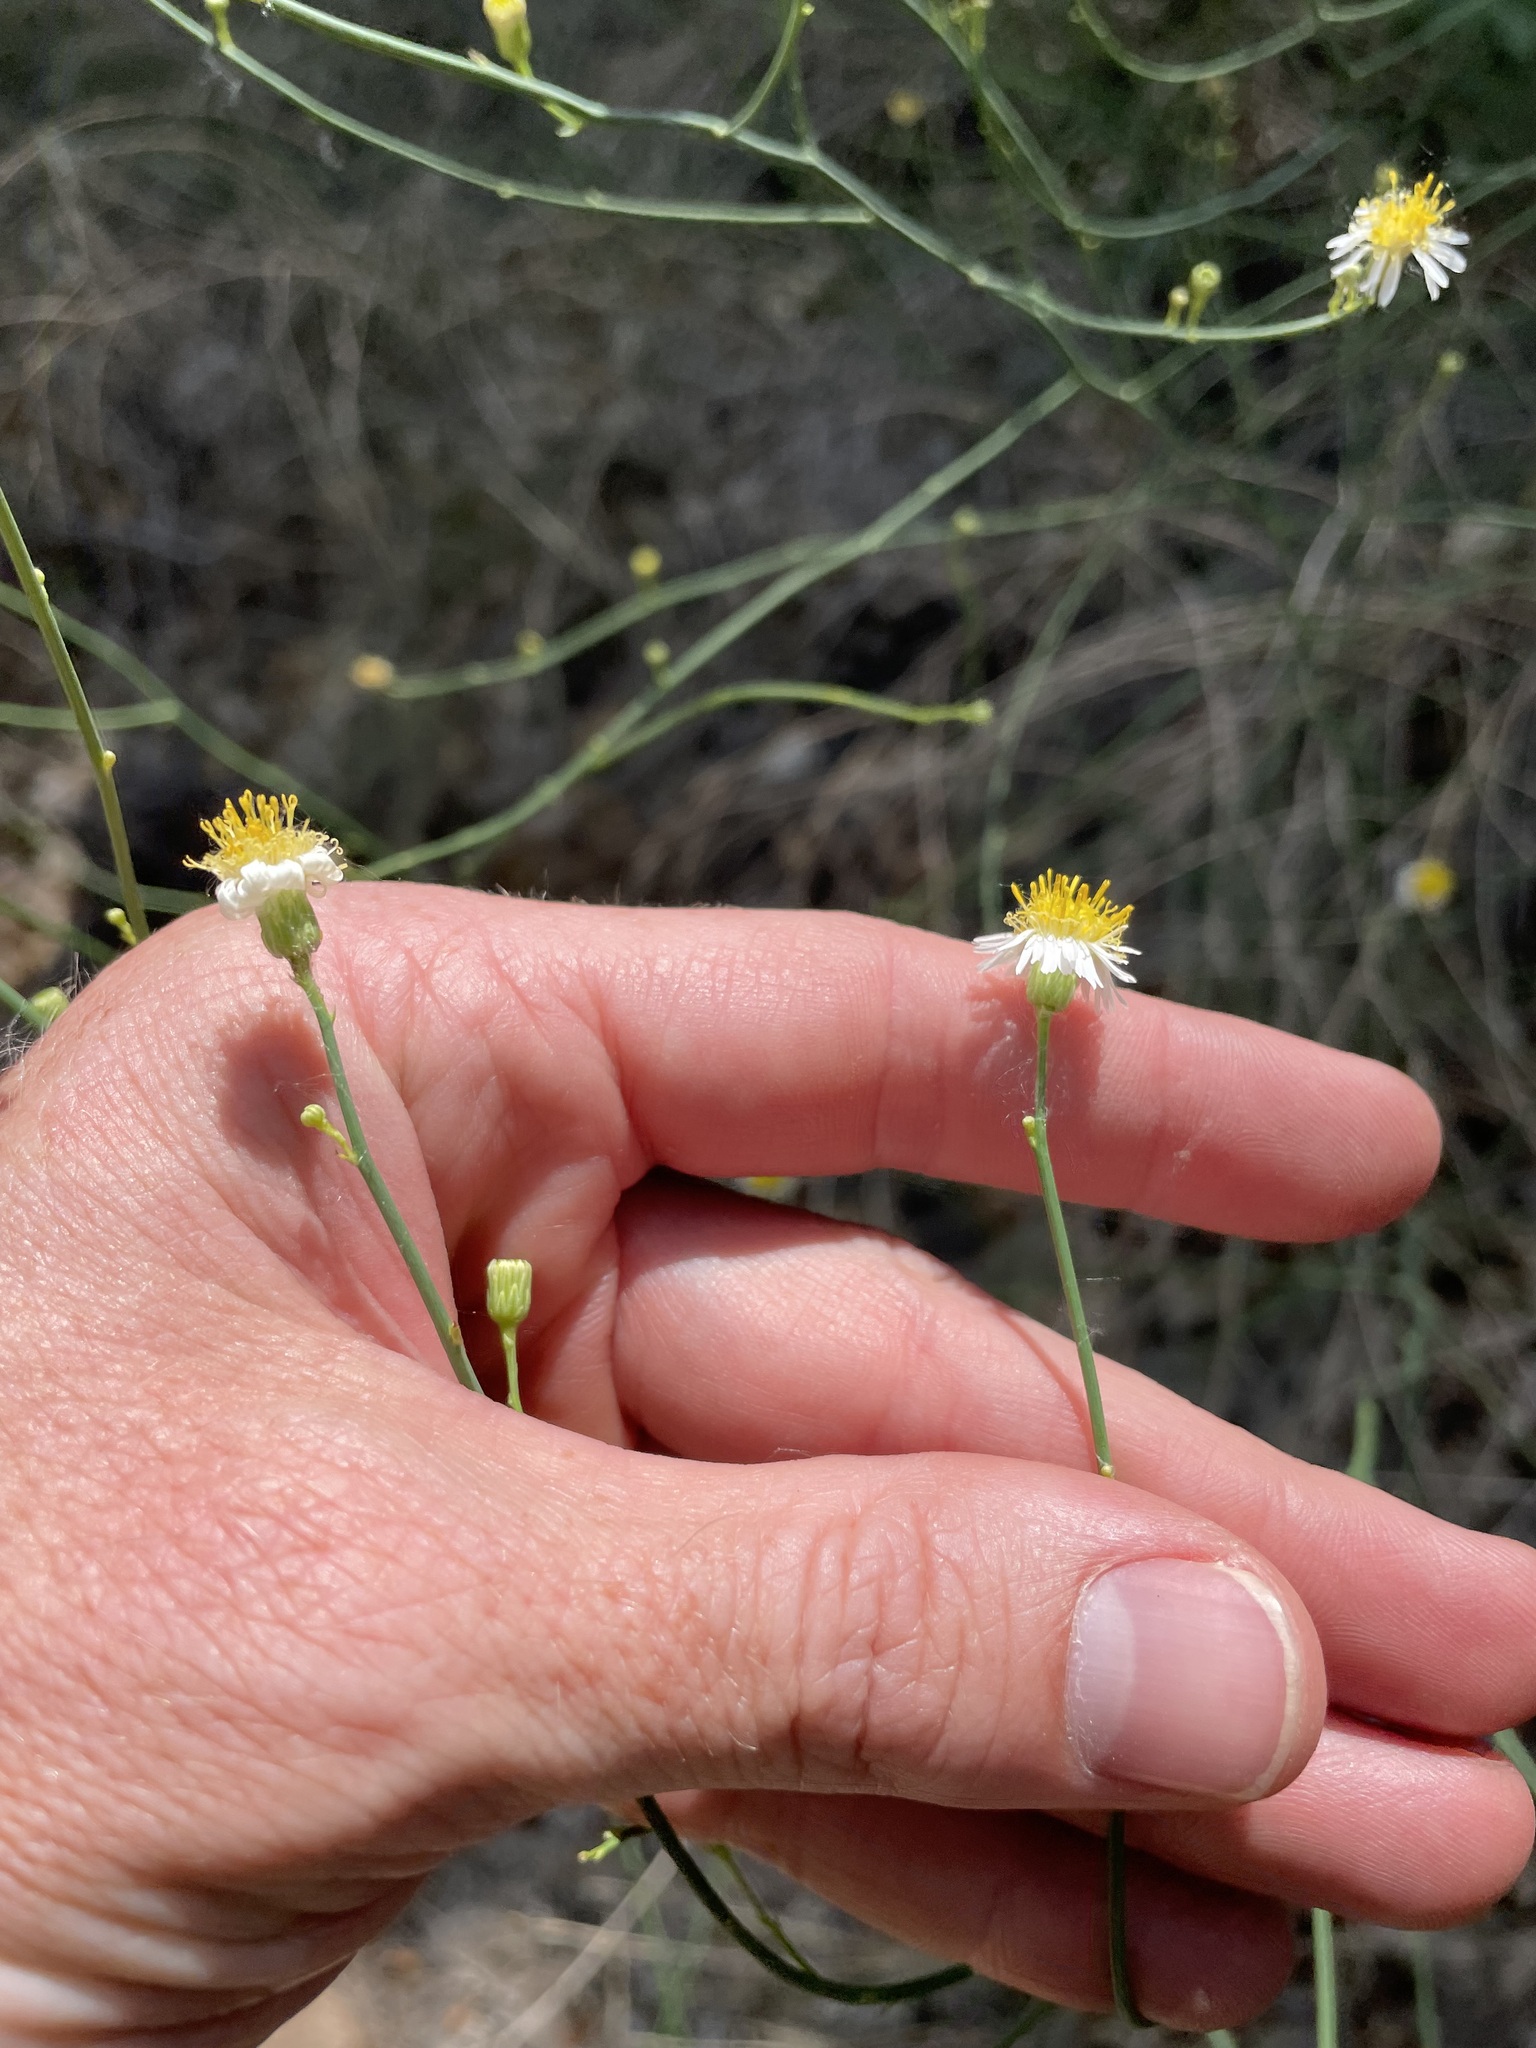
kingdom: Plantae
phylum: Tracheophyta
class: Magnoliopsida
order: Asterales
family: Asteraceae
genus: Chloracantha
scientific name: Chloracantha spinosa
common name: Mexican devilweed
